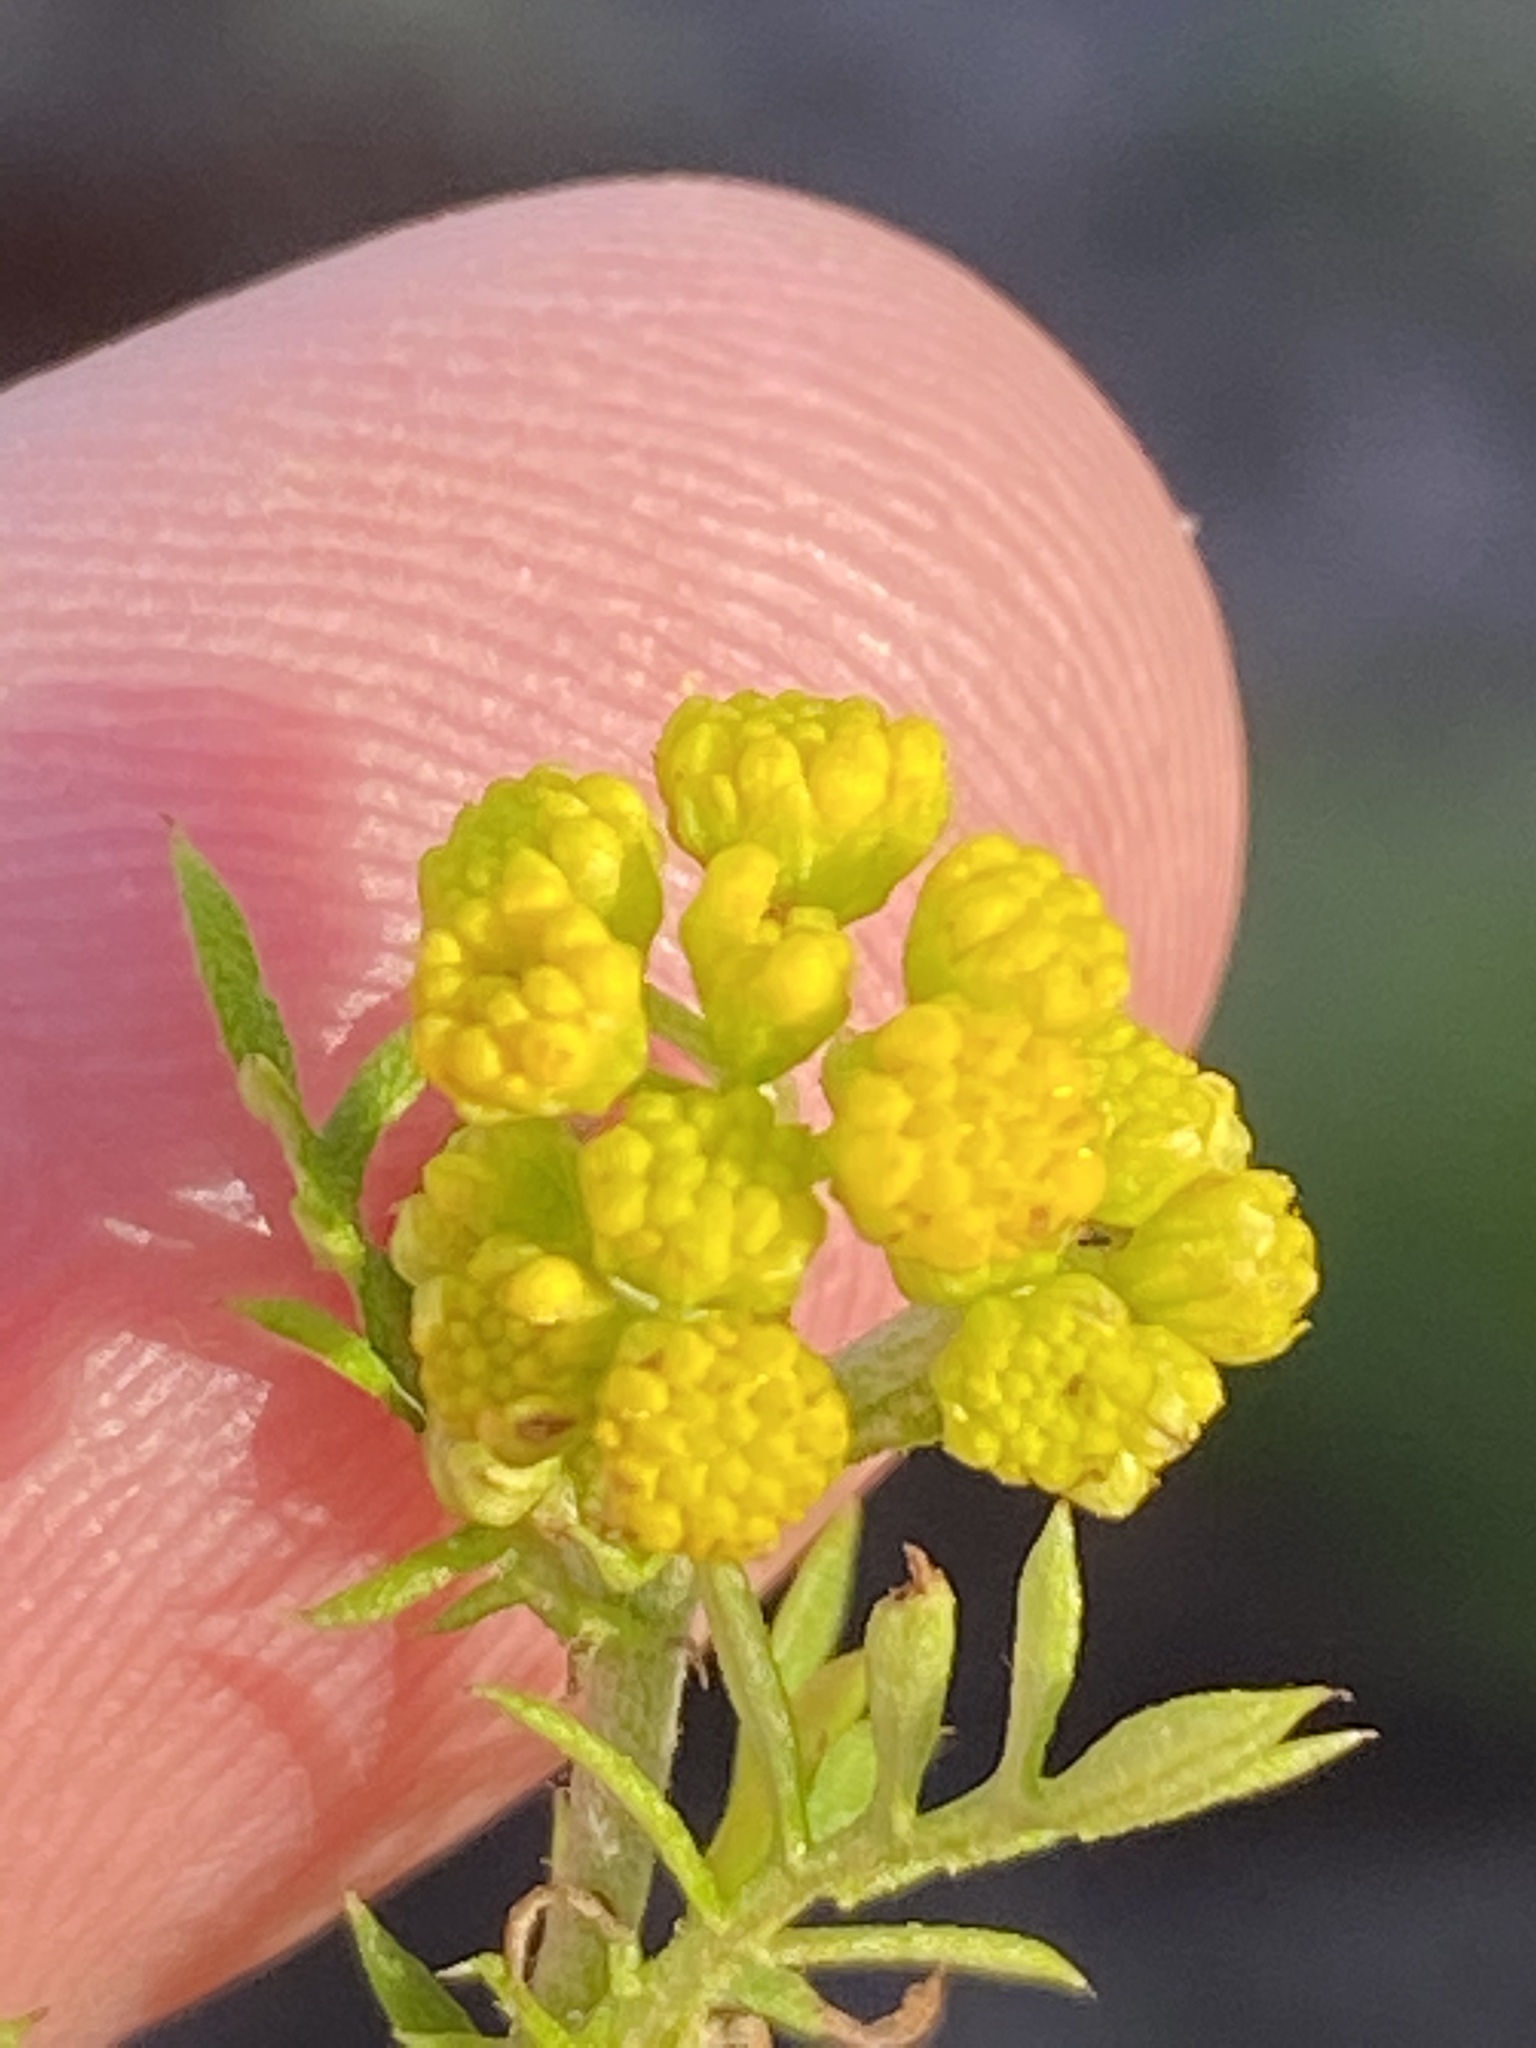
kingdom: Plantae
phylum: Tracheophyta
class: Magnoliopsida
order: Asterales
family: Asteraceae
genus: Hippia
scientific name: Hippia frutescens
